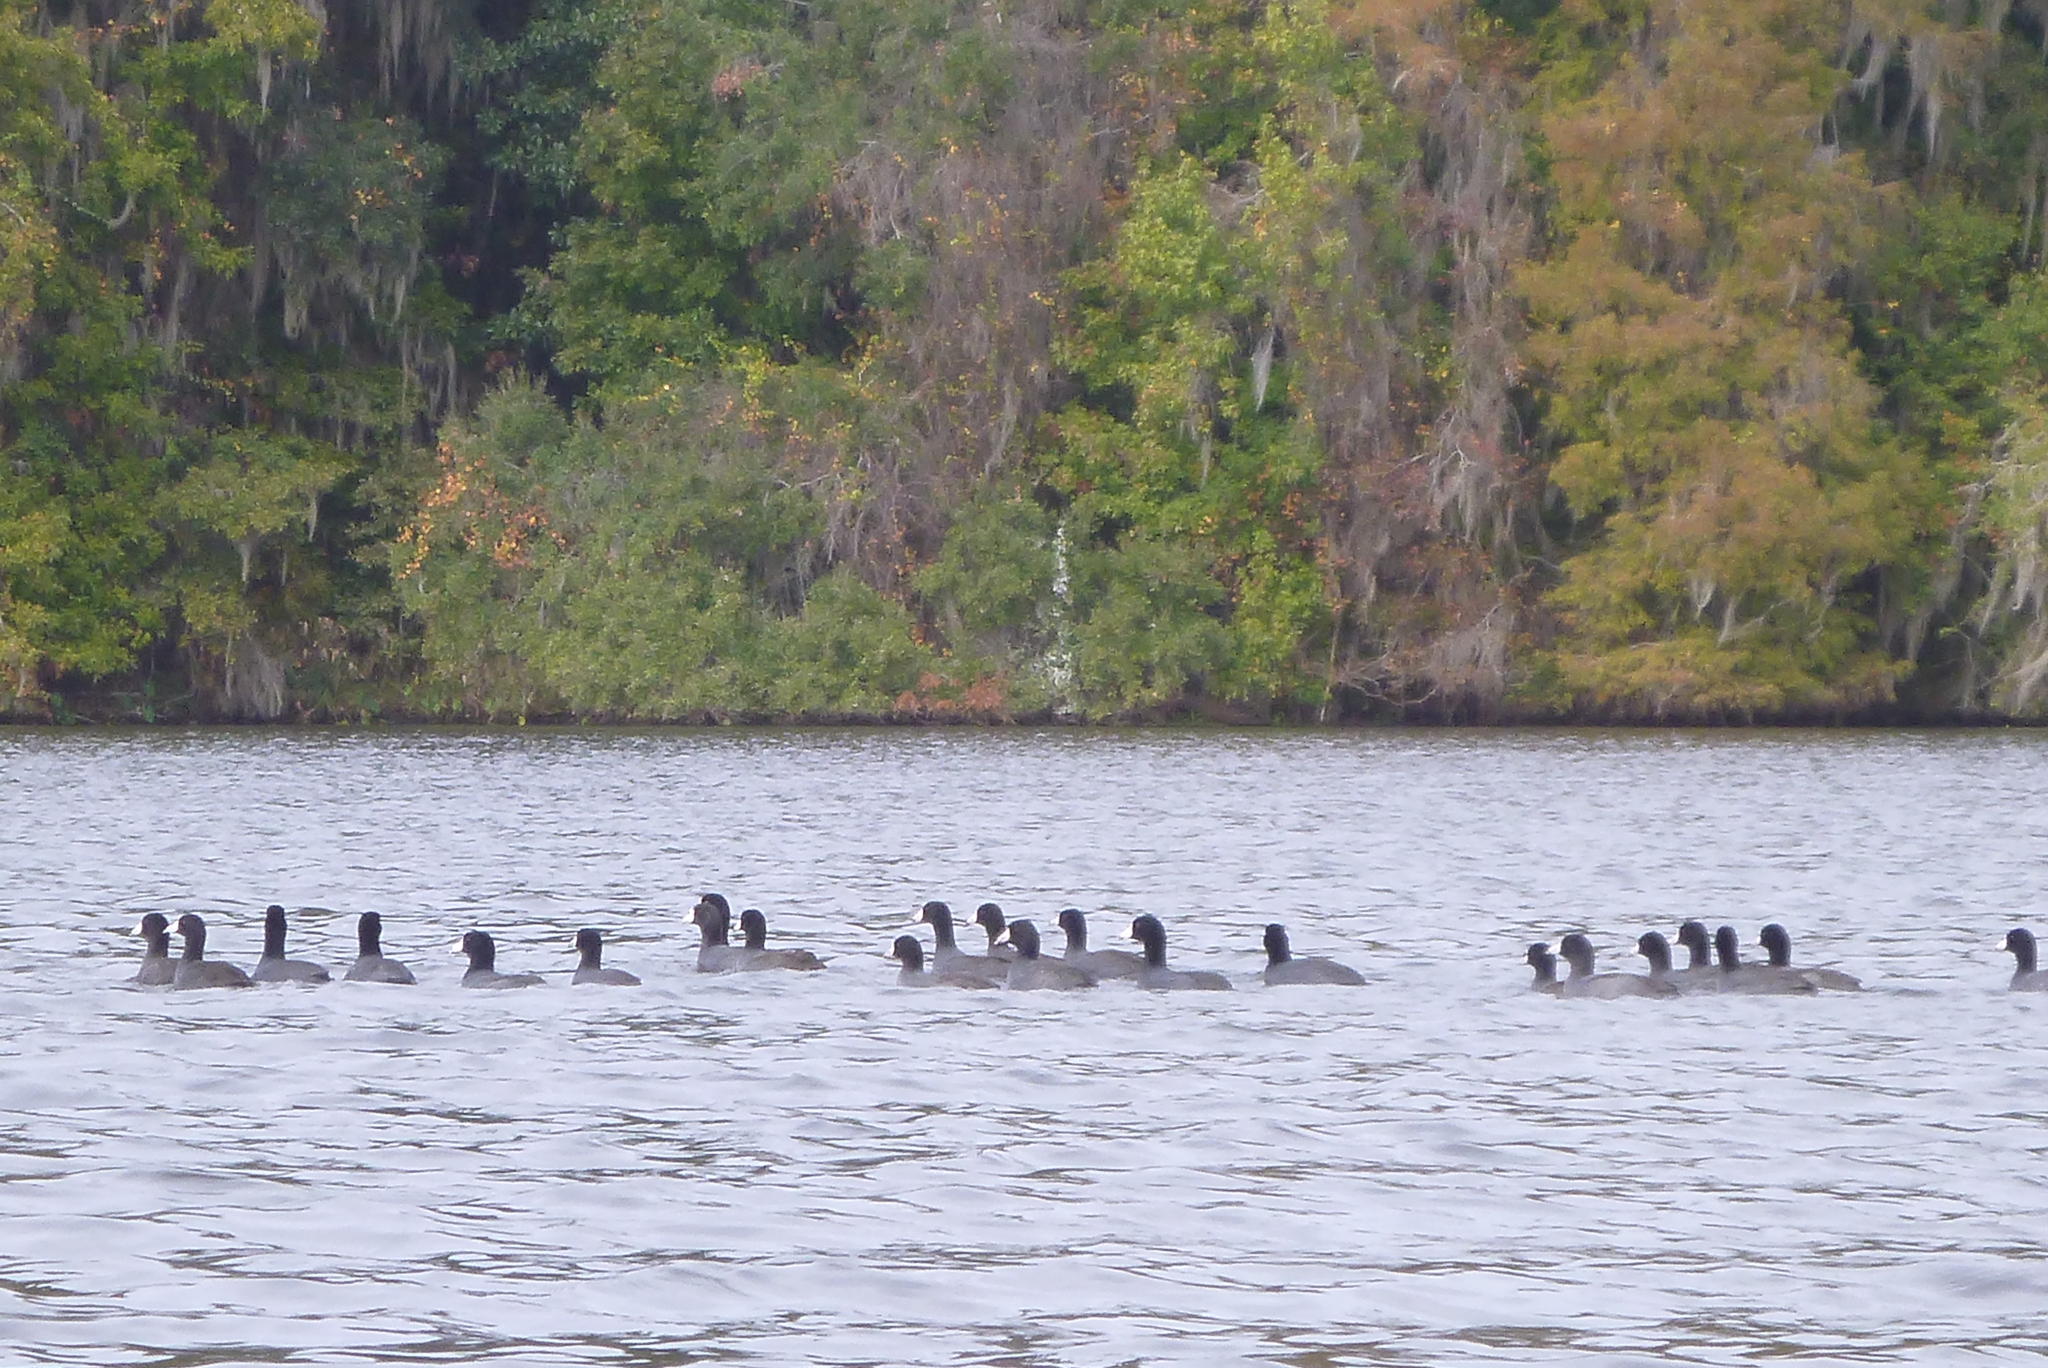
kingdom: Animalia
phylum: Chordata
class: Aves
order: Gruiformes
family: Rallidae
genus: Fulica
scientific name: Fulica americana
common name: American coot
